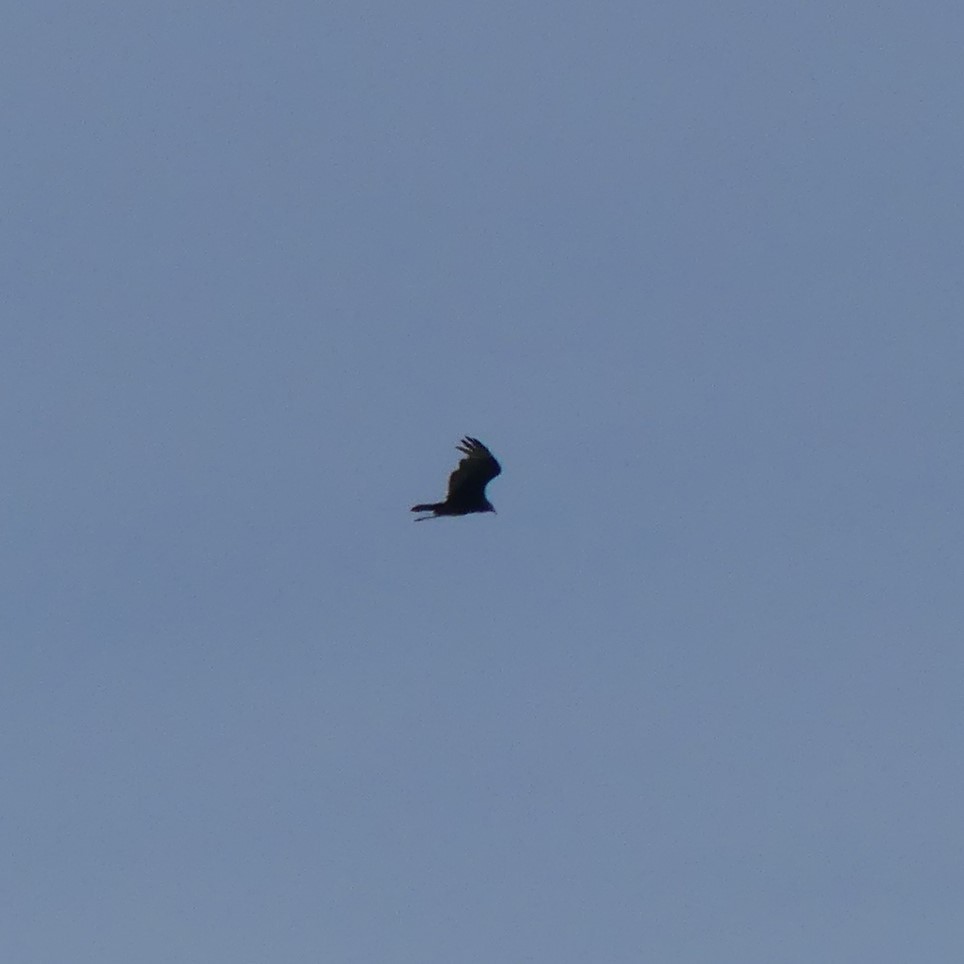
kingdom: Animalia
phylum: Chordata
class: Aves
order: Accipitriformes
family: Cathartidae
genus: Cathartes
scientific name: Cathartes aura
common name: Turkey vulture
